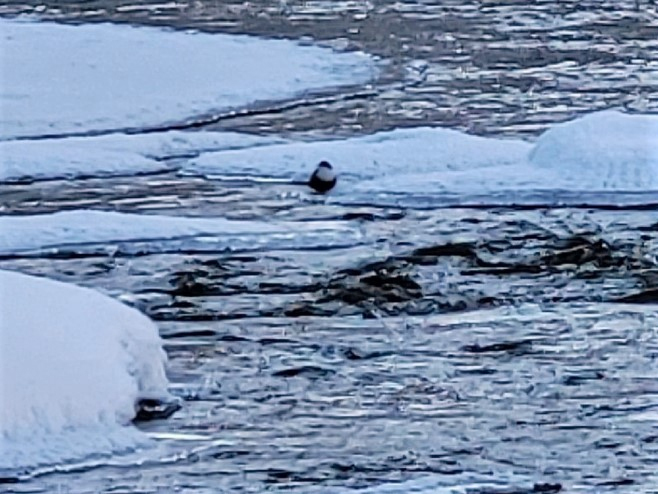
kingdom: Animalia
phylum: Chordata
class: Aves
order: Passeriformes
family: Cinclidae
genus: Cinclus
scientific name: Cinclus cinclus
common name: White-throated dipper
